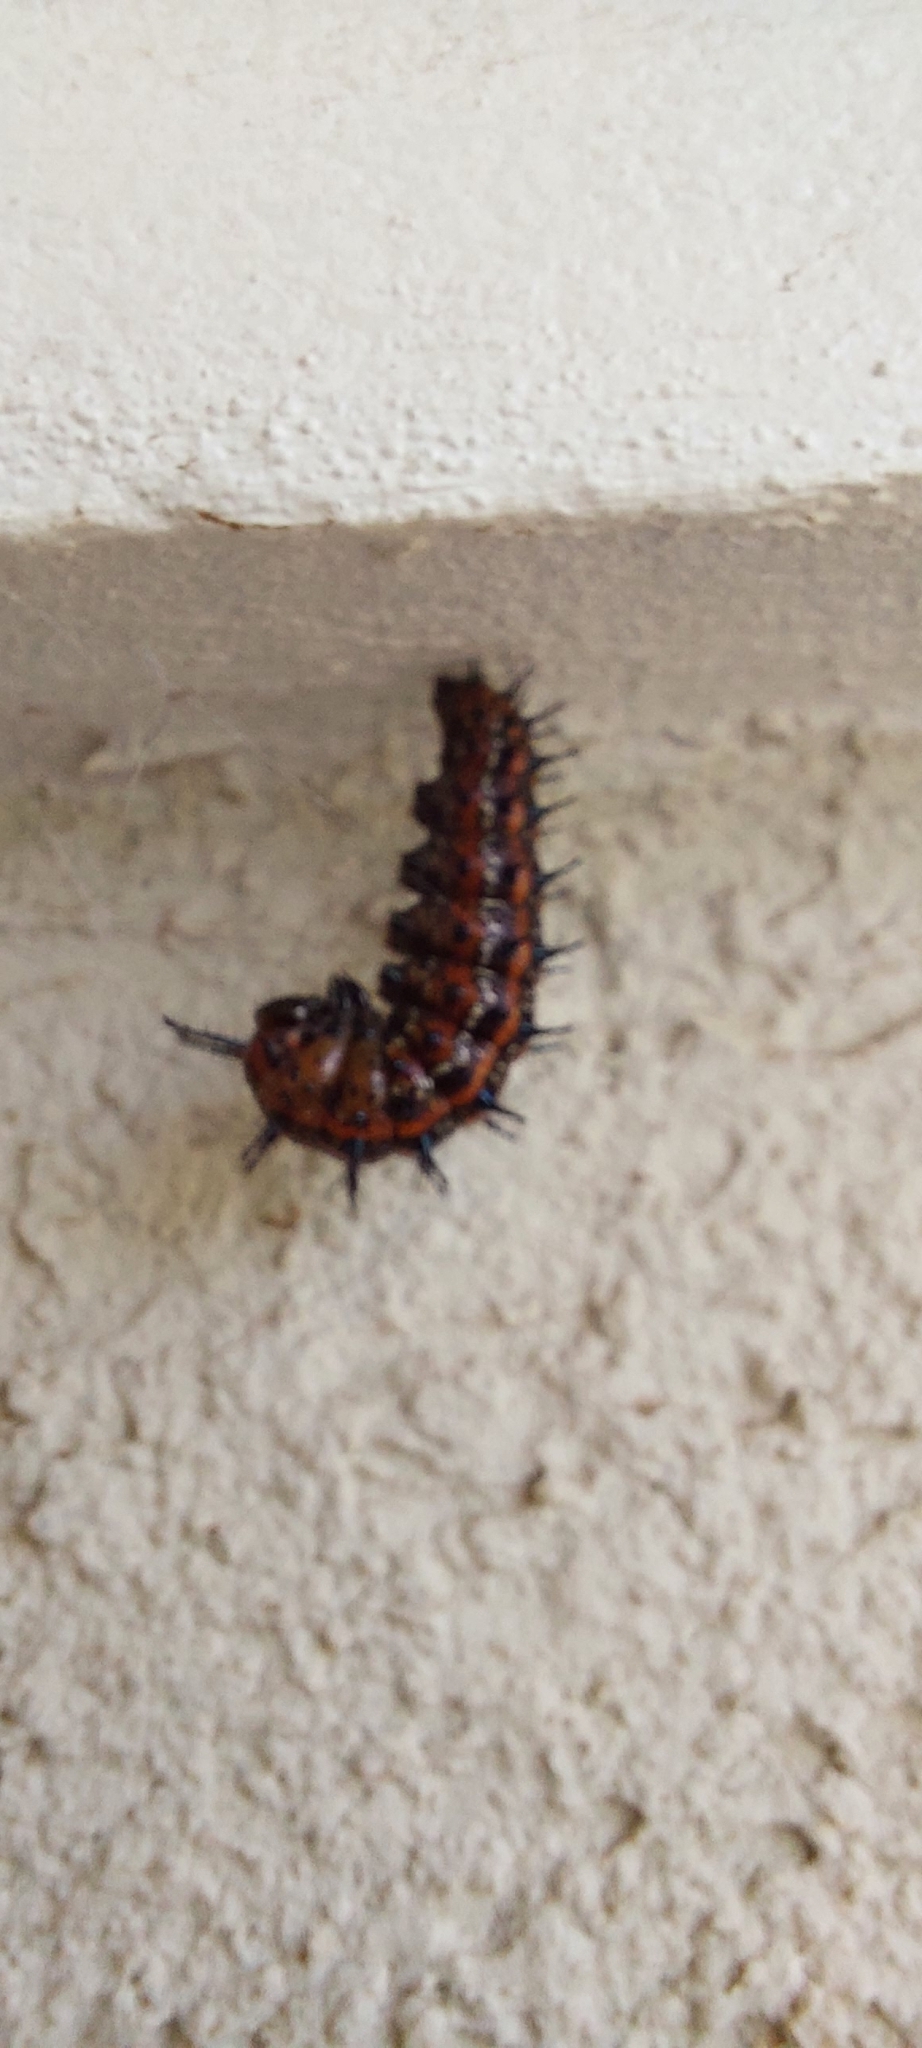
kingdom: Animalia
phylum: Arthropoda
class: Insecta
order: Lepidoptera
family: Nymphalidae
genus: Euptoieta
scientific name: Euptoieta hortensia
